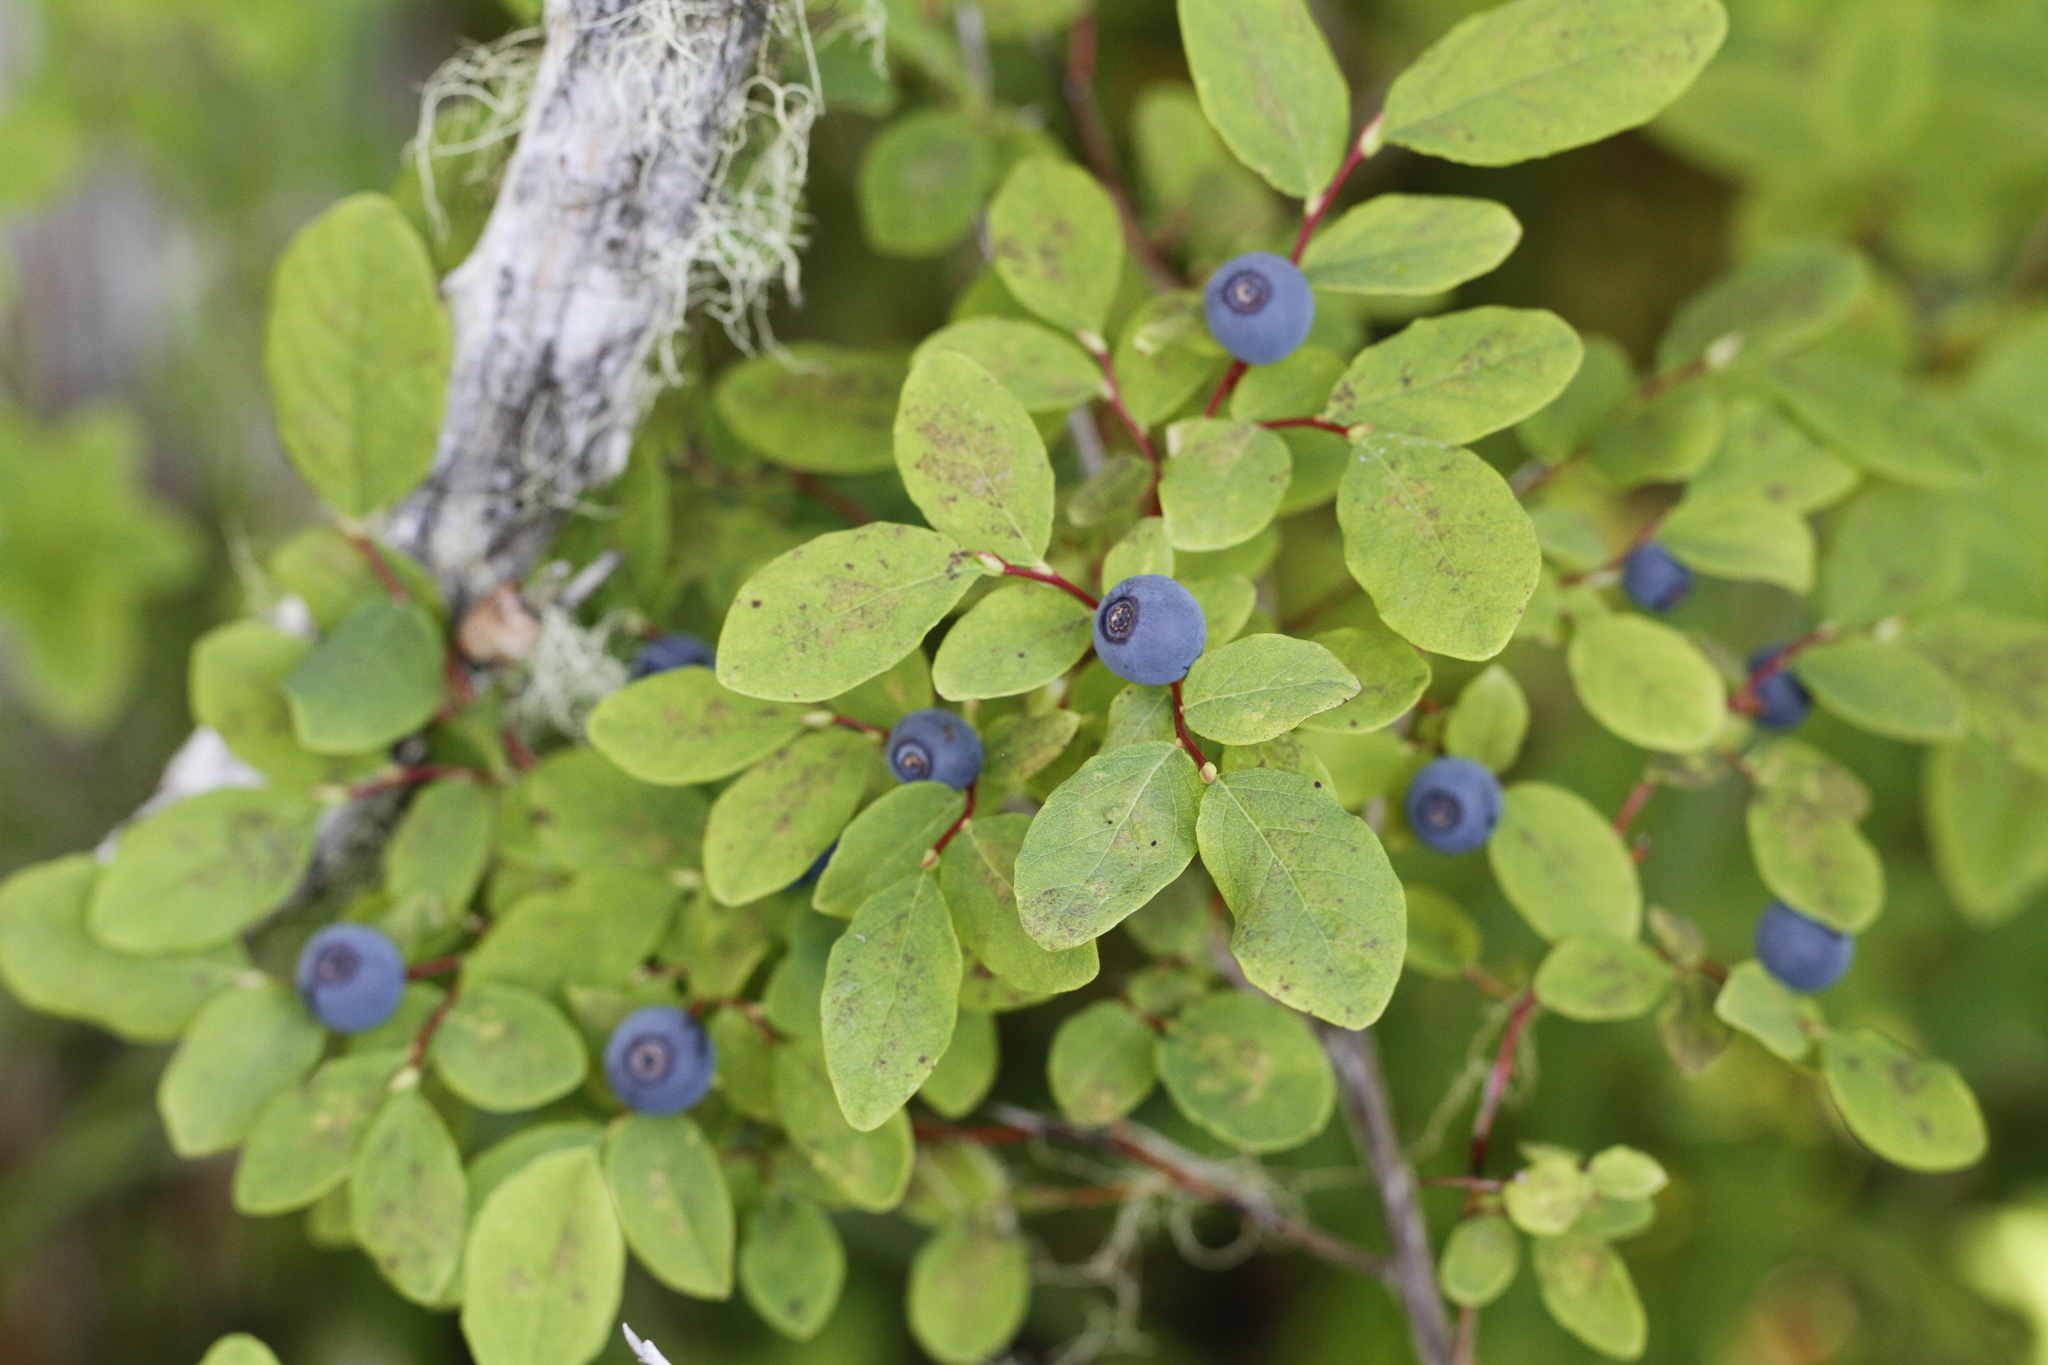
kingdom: Plantae
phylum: Tracheophyta
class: Magnoliopsida
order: Ericales
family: Ericaceae
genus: Vaccinium
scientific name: Vaccinium ovalifolium
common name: Early blueberry
